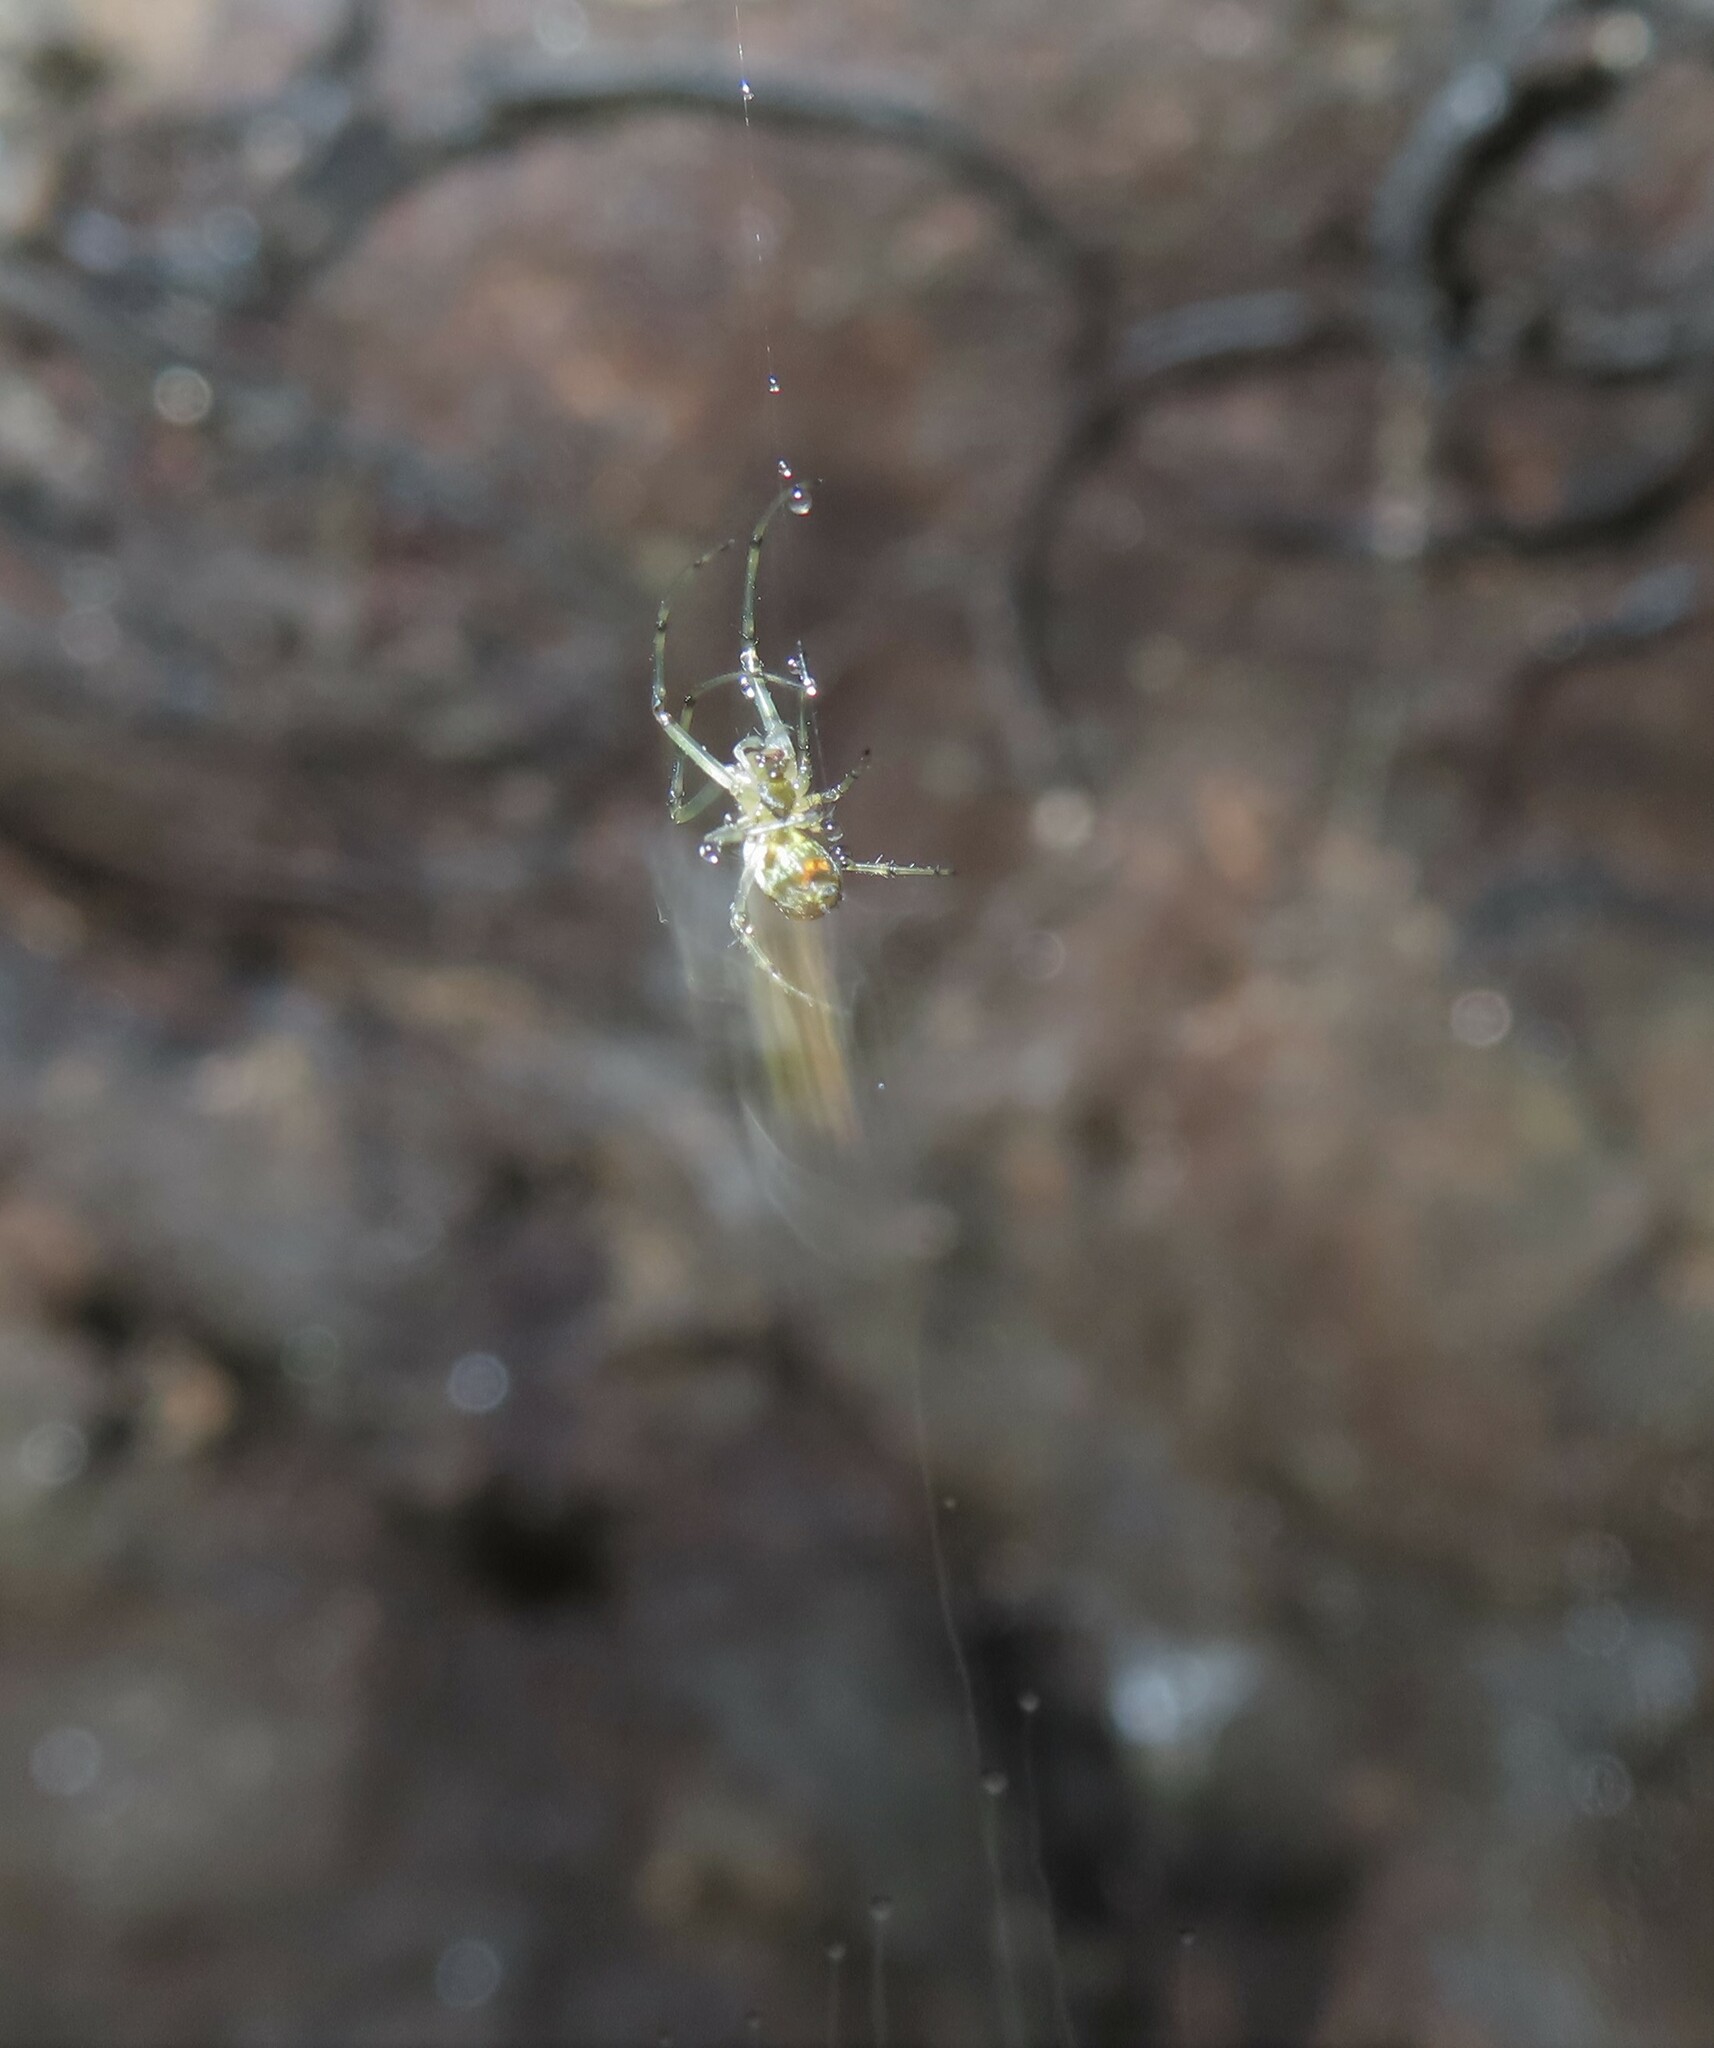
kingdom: Animalia
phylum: Arthropoda
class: Arachnida
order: Araneae
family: Tetragnathidae
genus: Leucauge
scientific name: Leucauge venusta
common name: Longjawed orb weavers
